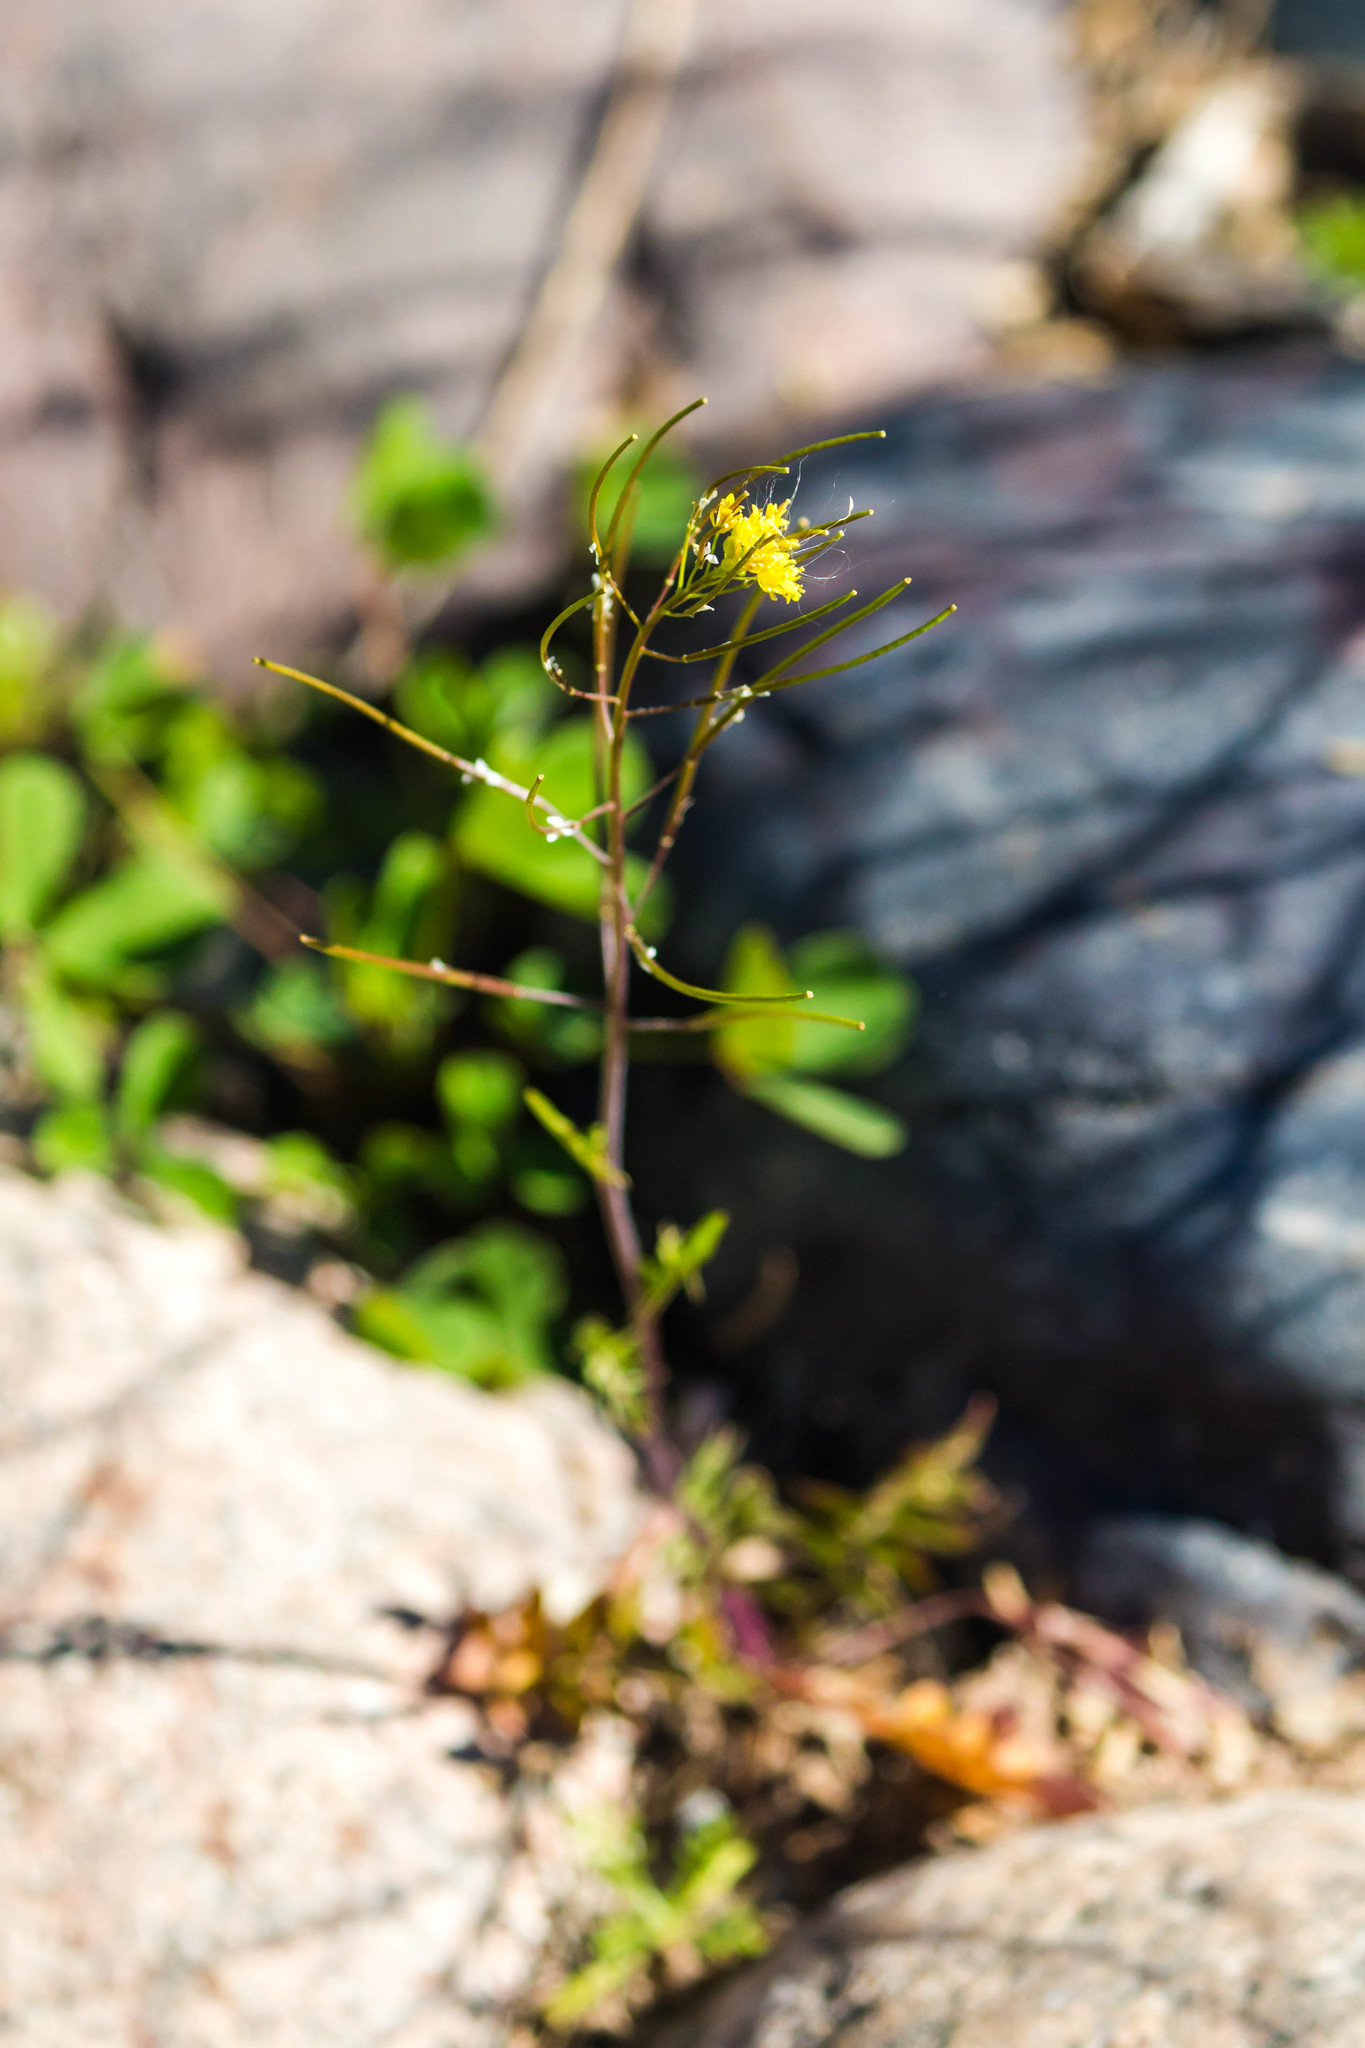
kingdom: Plantae
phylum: Tracheophyta
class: Magnoliopsida
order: Brassicales
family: Brassicaceae
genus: Sisymbrium
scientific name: Sisymbrium irio
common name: London rocket
